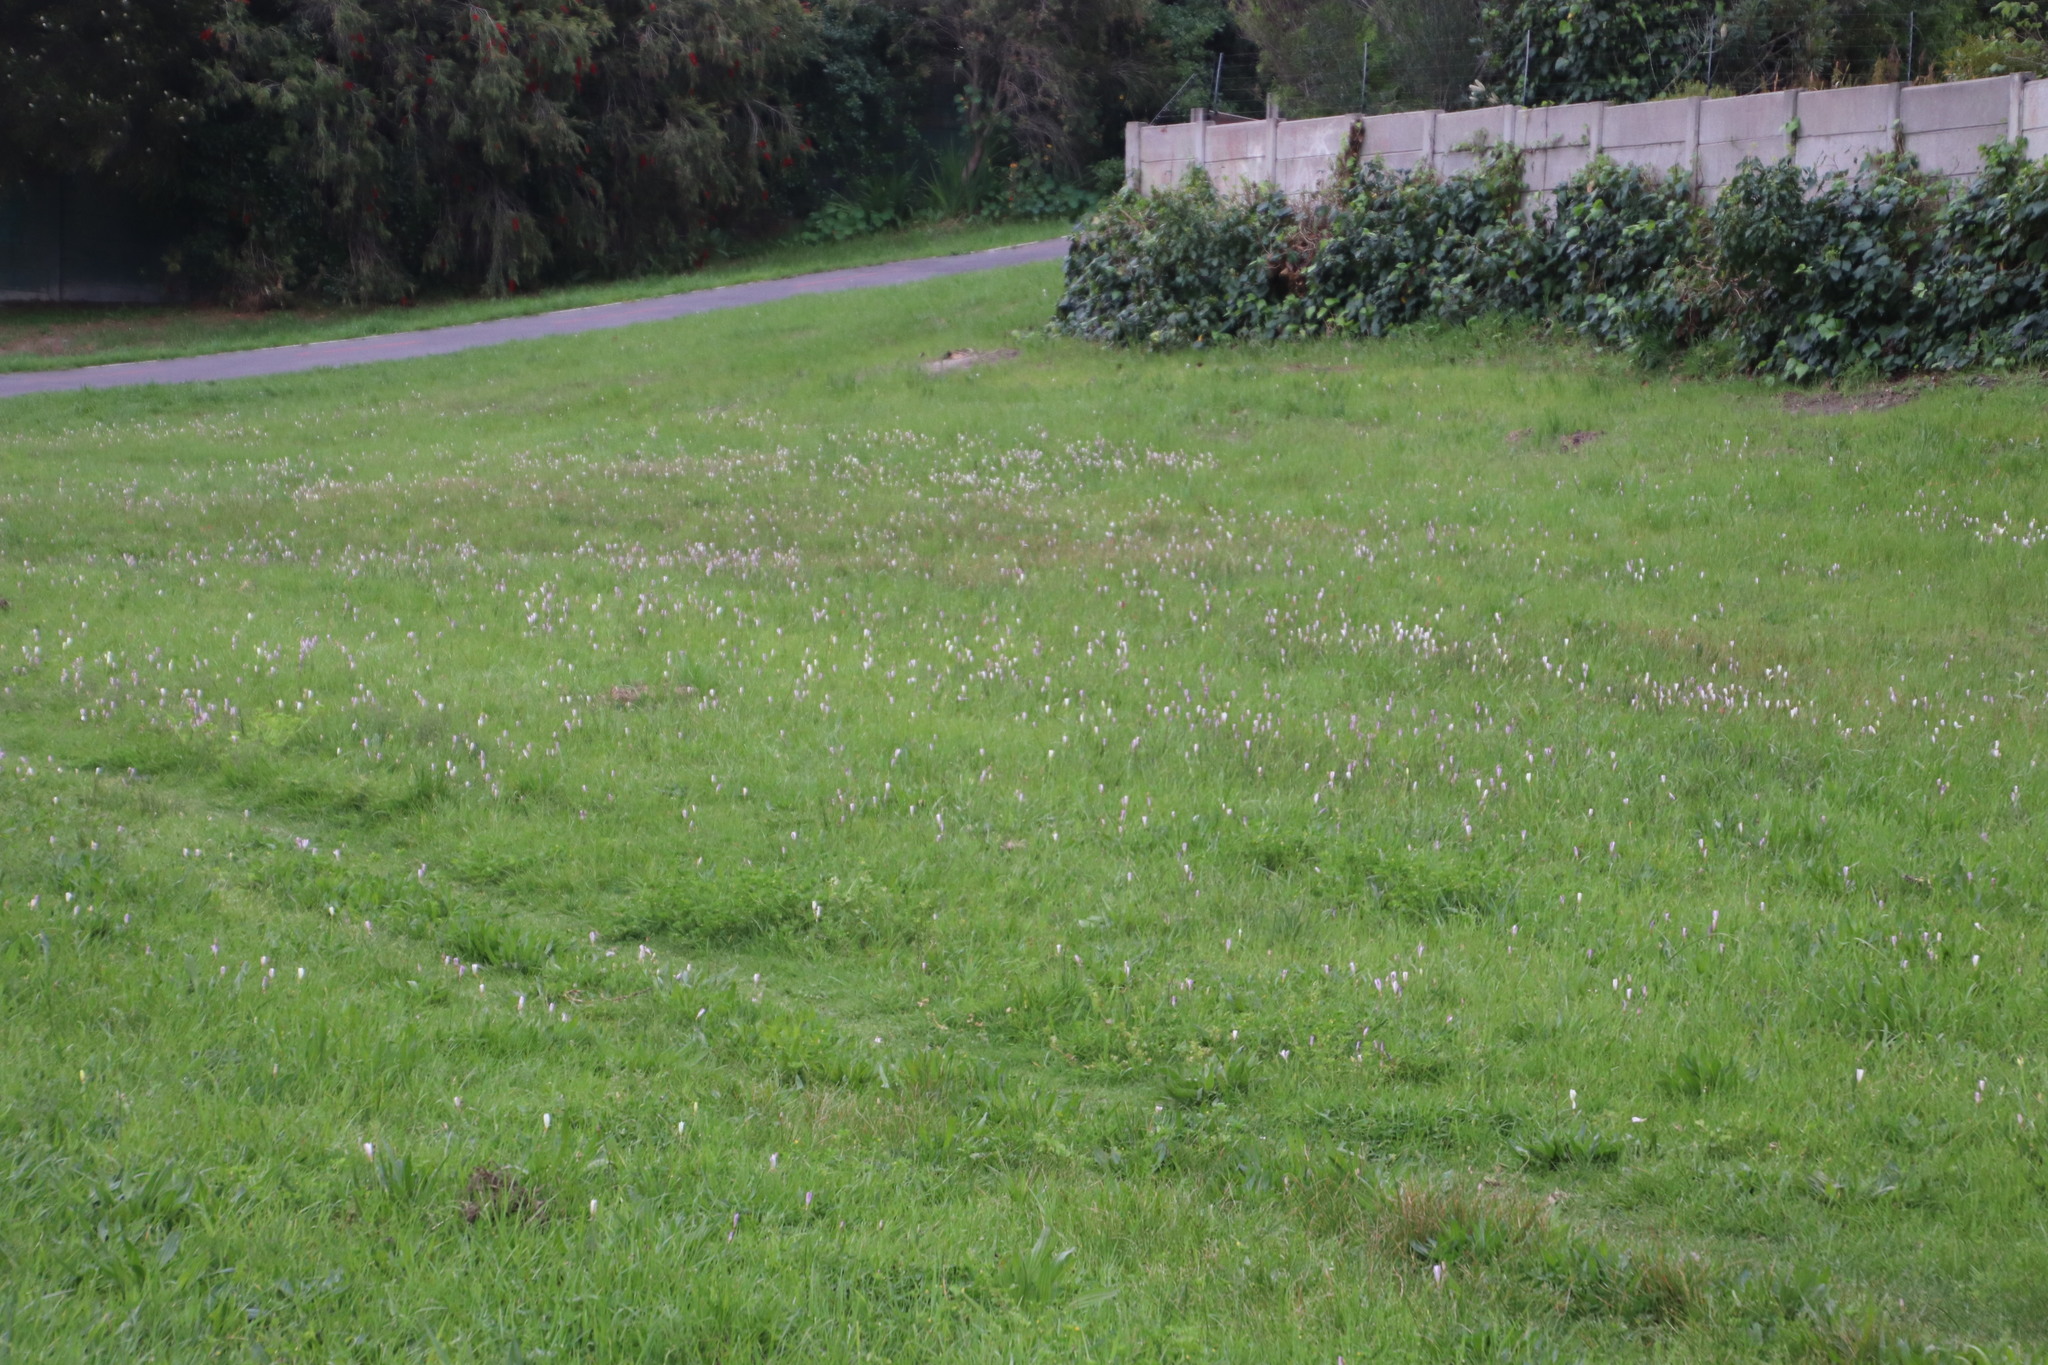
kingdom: Plantae
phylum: Tracheophyta
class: Liliopsida
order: Asparagales
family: Iridaceae
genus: Sparaxis
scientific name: Sparaxis bulbifera
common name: Harlequin-flower
